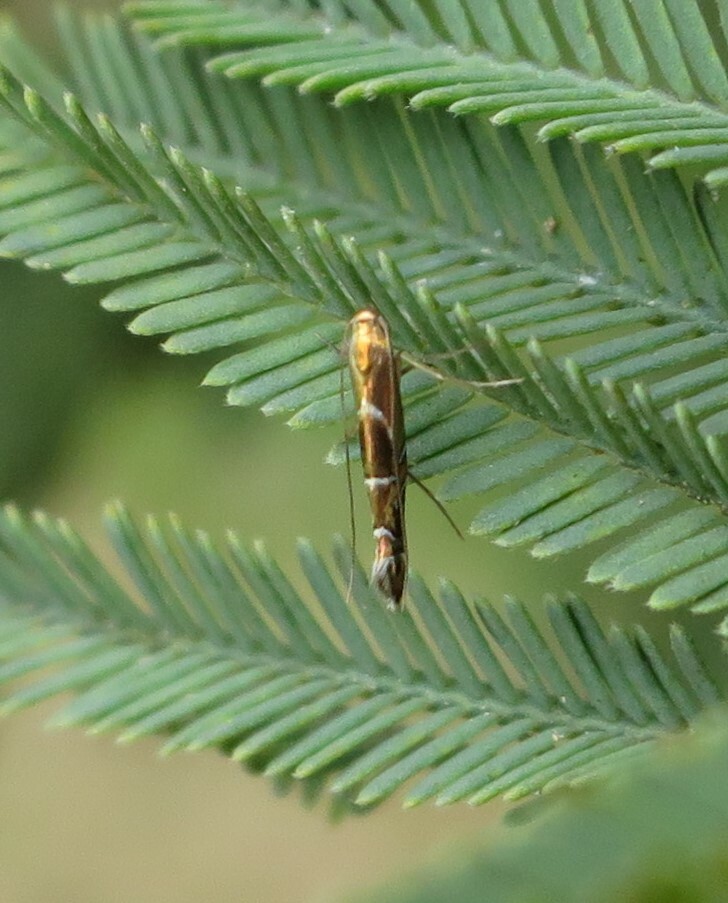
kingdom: Animalia
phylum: Arthropoda
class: Insecta
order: Lepidoptera
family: Gracillariidae
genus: Polysoma
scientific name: Polysoma eumetalla
